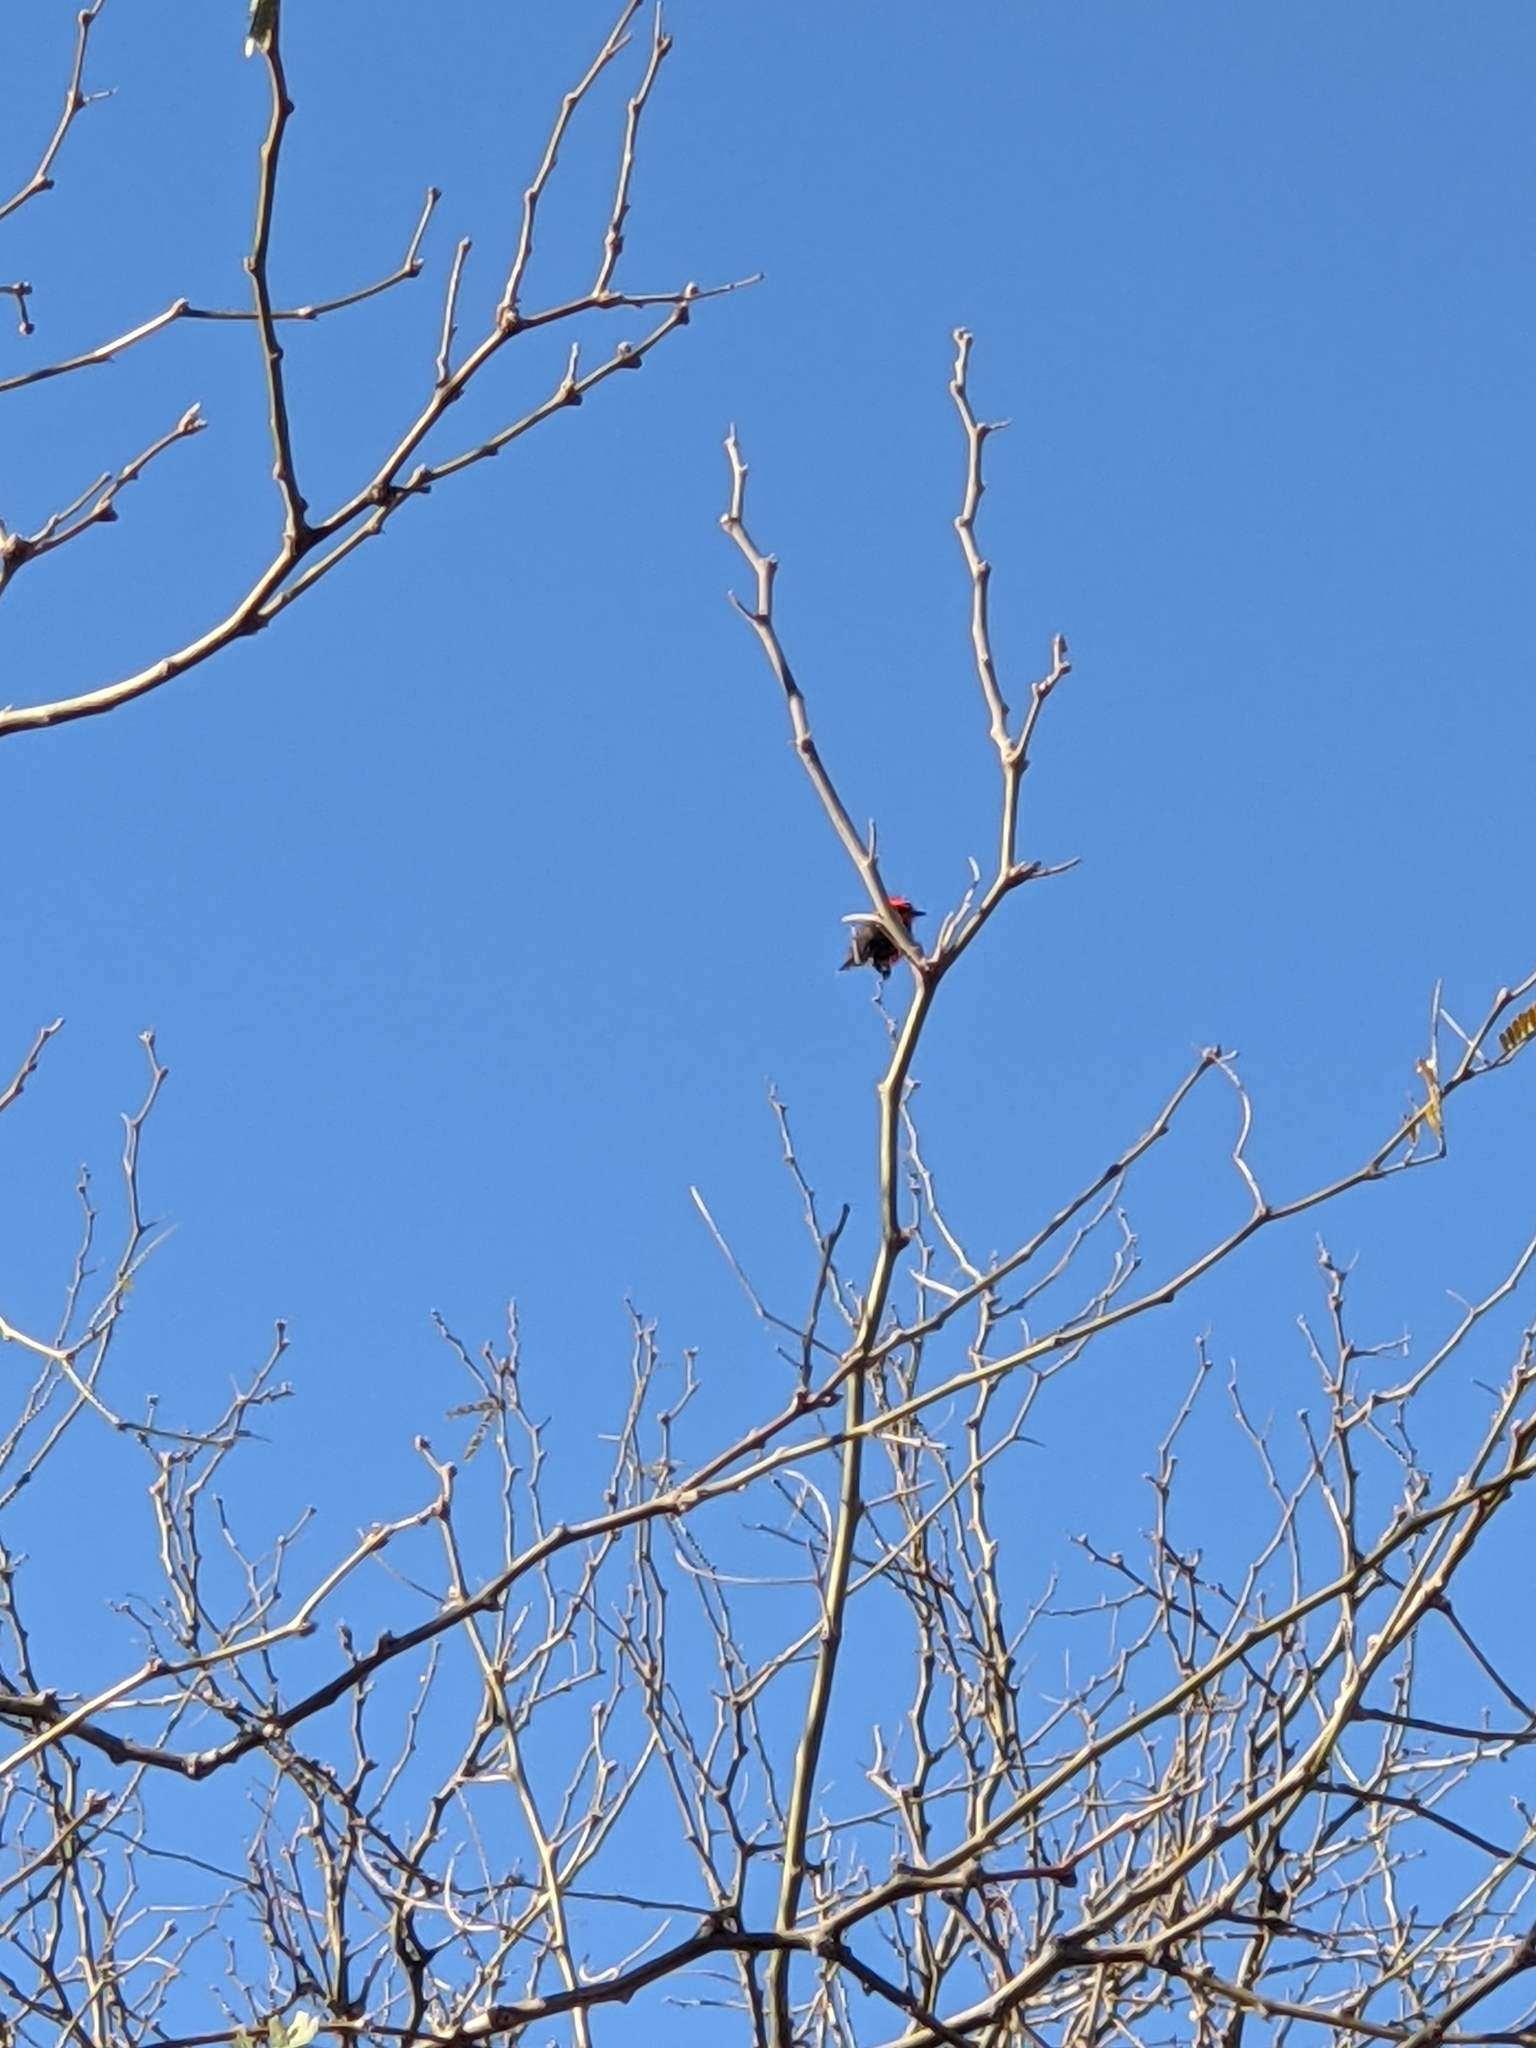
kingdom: Animalia
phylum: Chordata
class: Aves
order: Passeriformes
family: Tyrannidae
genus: Pyrocephalus
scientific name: Pyrocephalus rubinus
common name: Vermilion flycatcher
